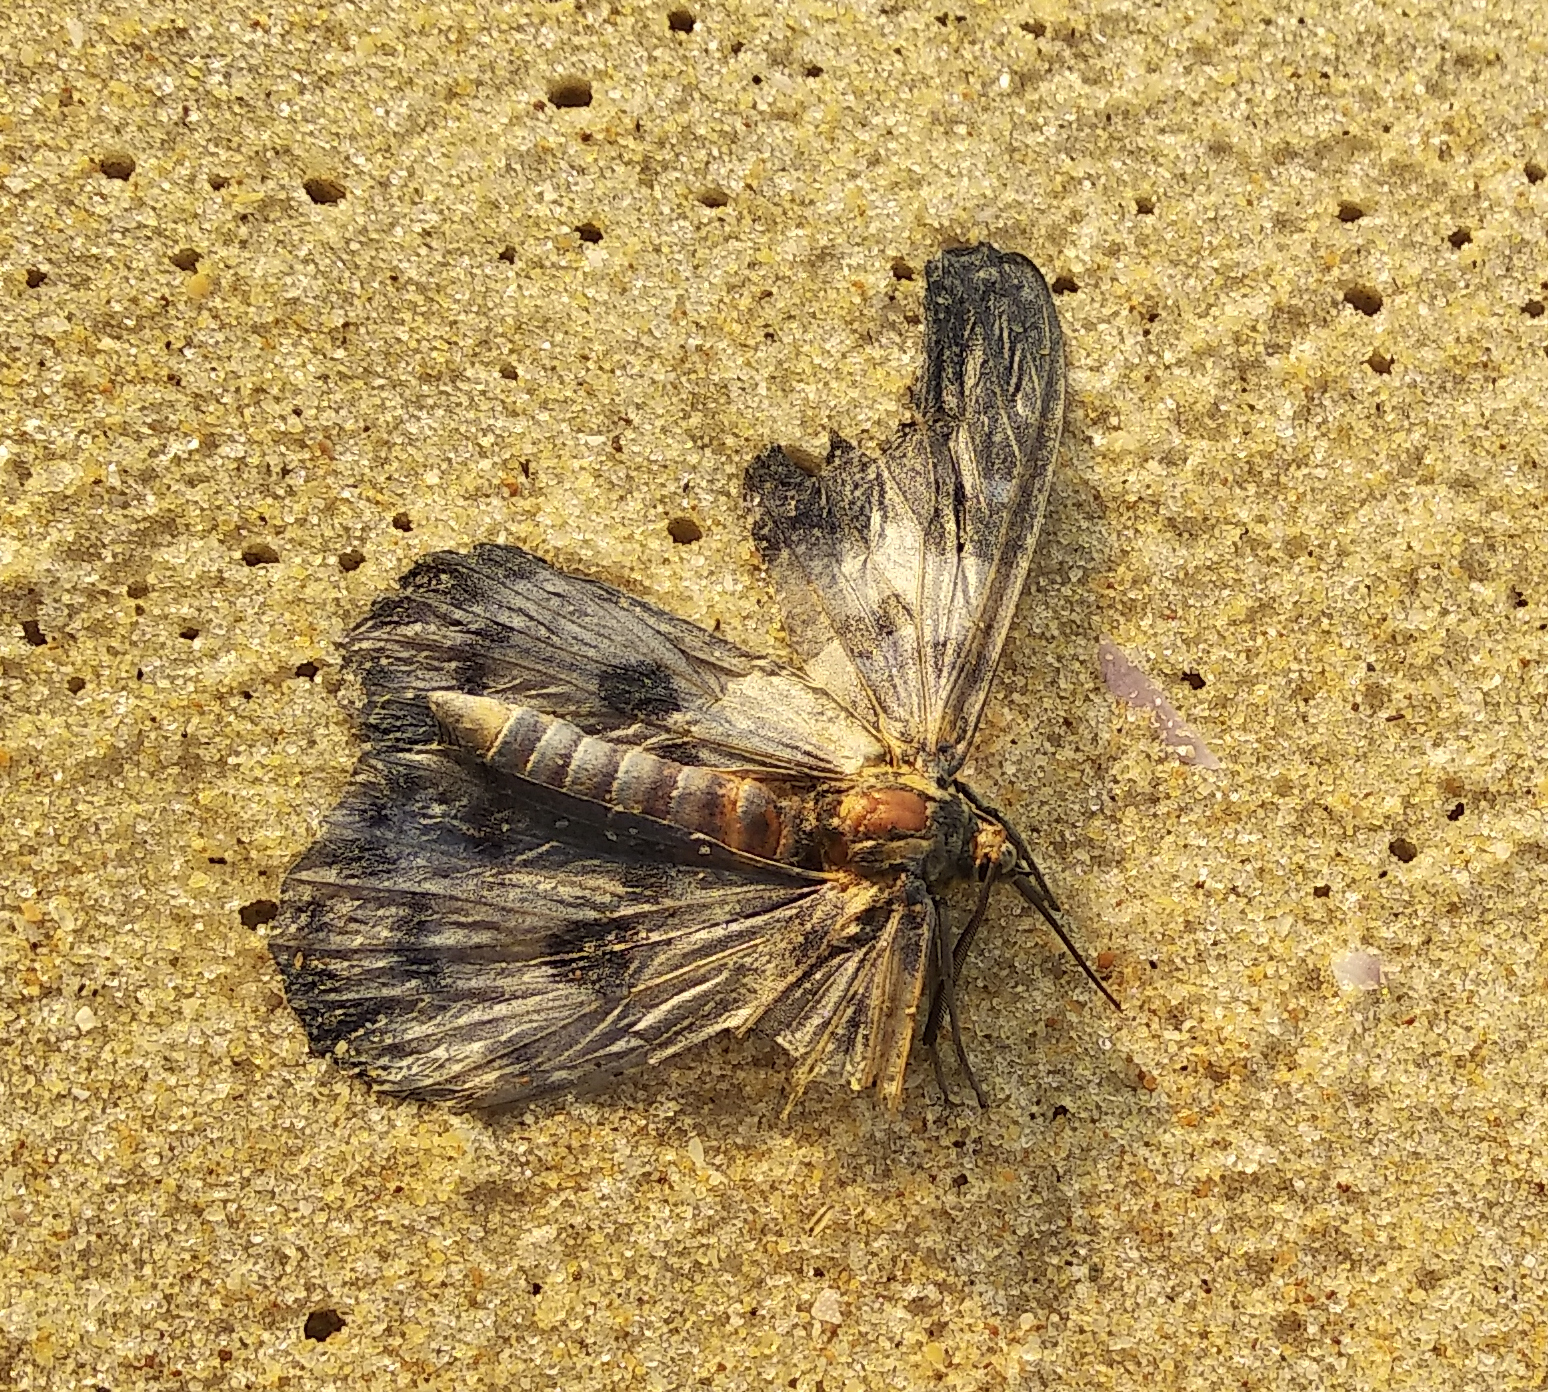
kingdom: Animalia
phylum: Arthropoda
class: Insecta
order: Lepidoptera
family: Geometridae
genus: Dysphania
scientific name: Dysphania percota
